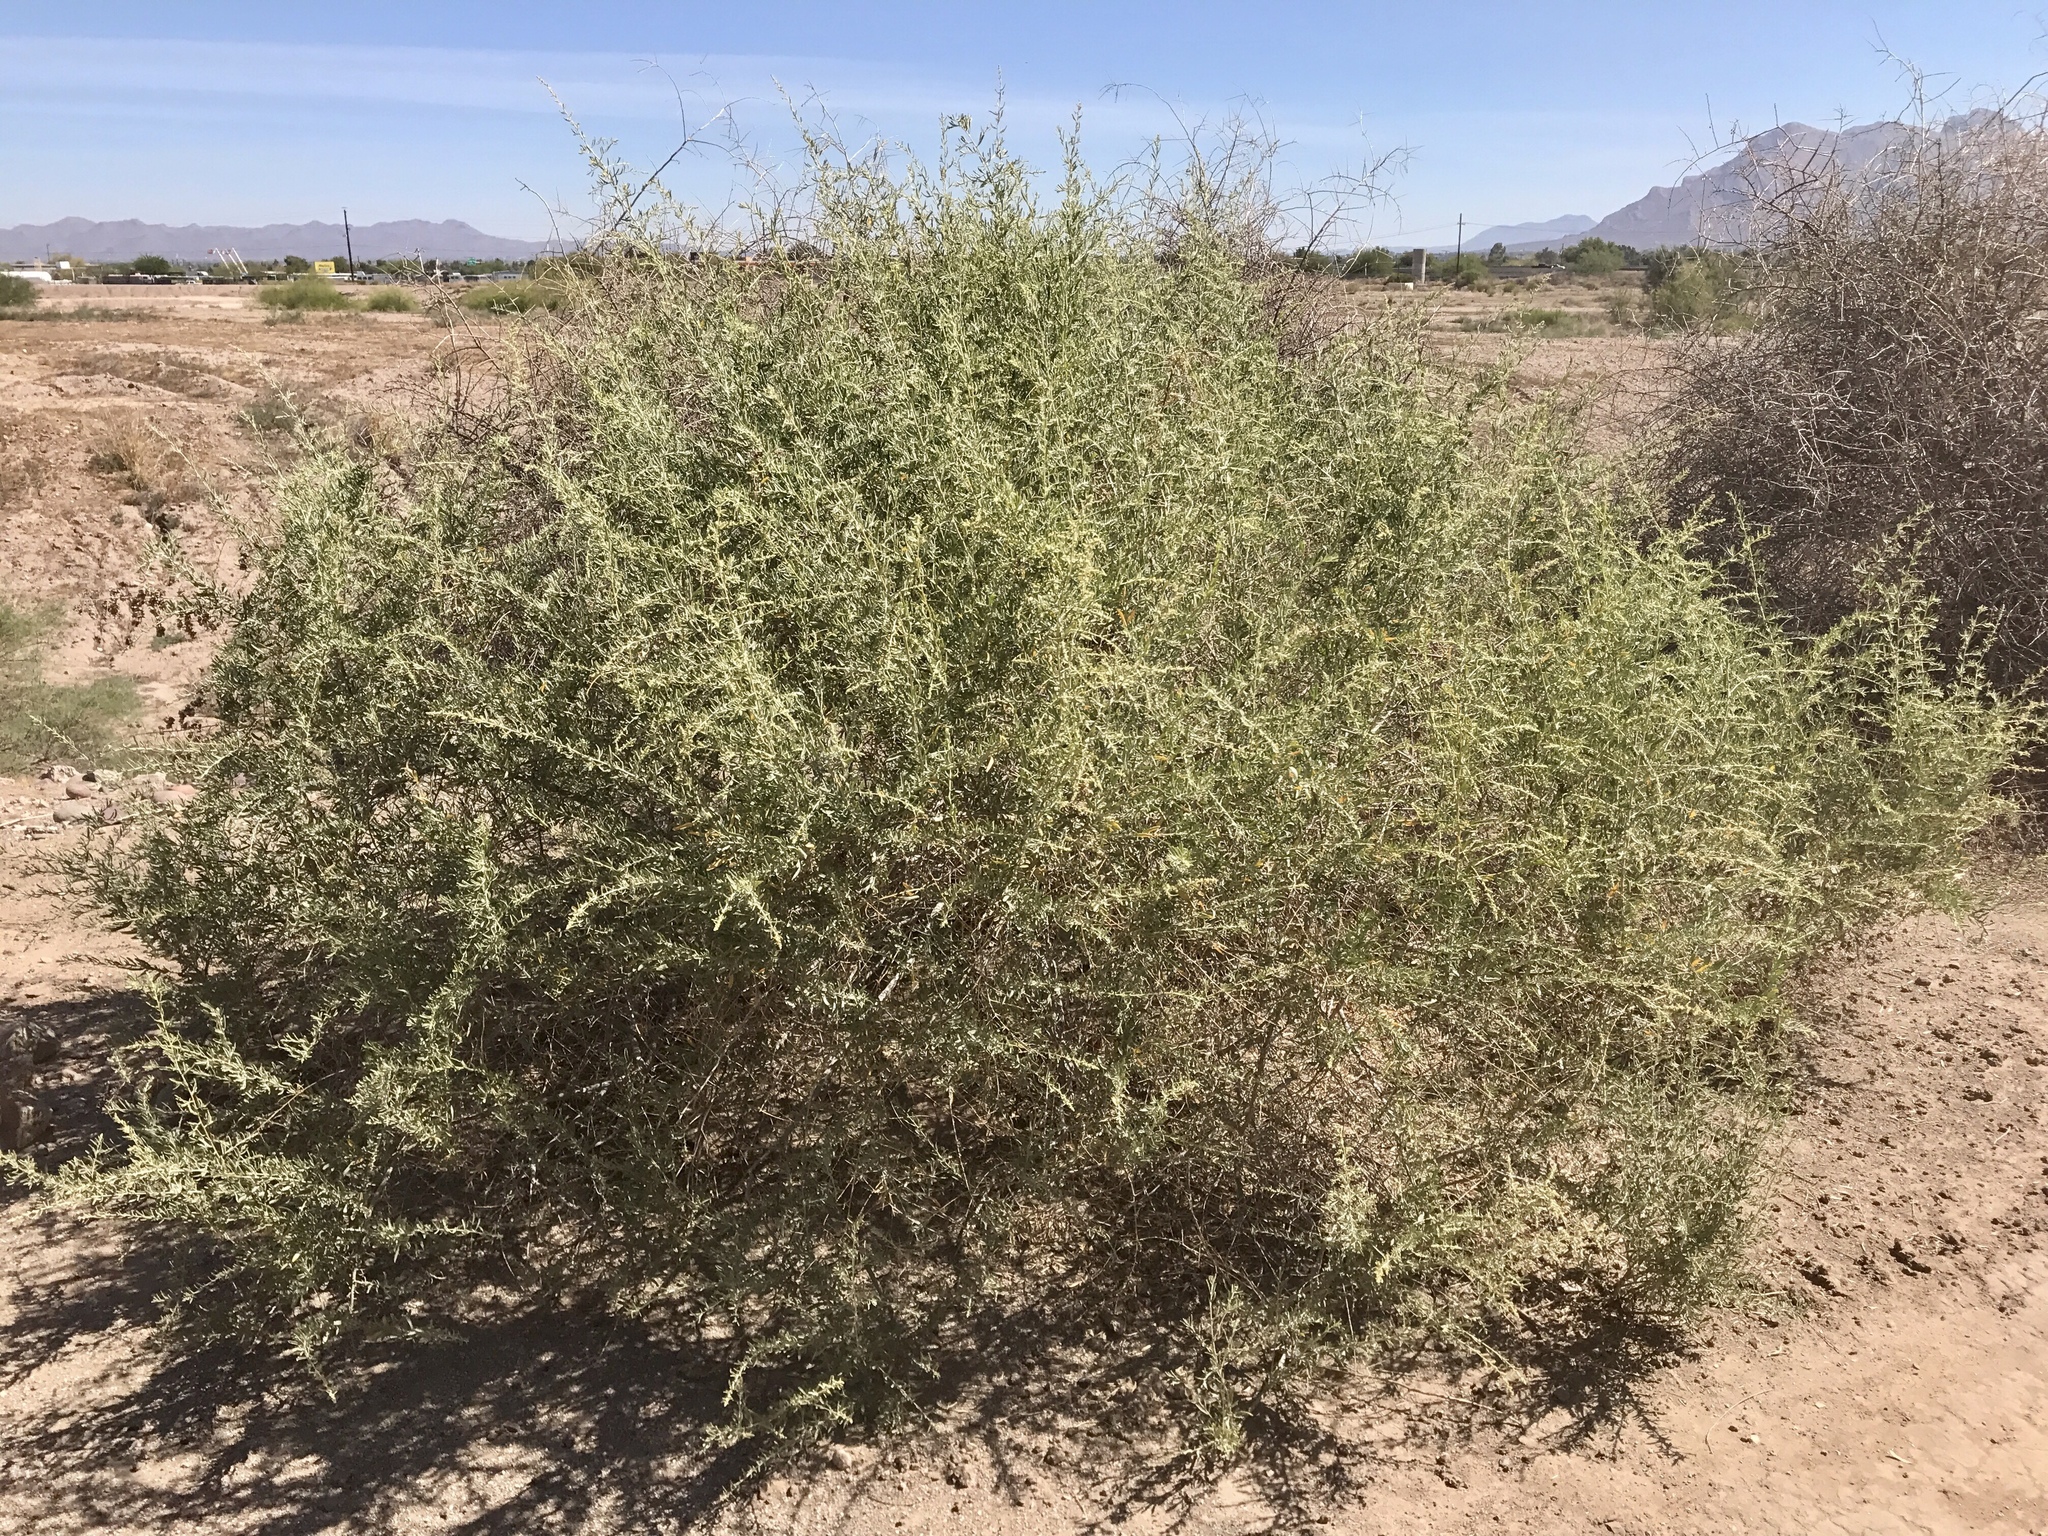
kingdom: Plantae
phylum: Tracheophyta
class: Magnoliopsida
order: Caryophyllales
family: Amaranthaceae
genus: Atriplex
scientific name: Atriplex canescens
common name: Four-wing saltbush
